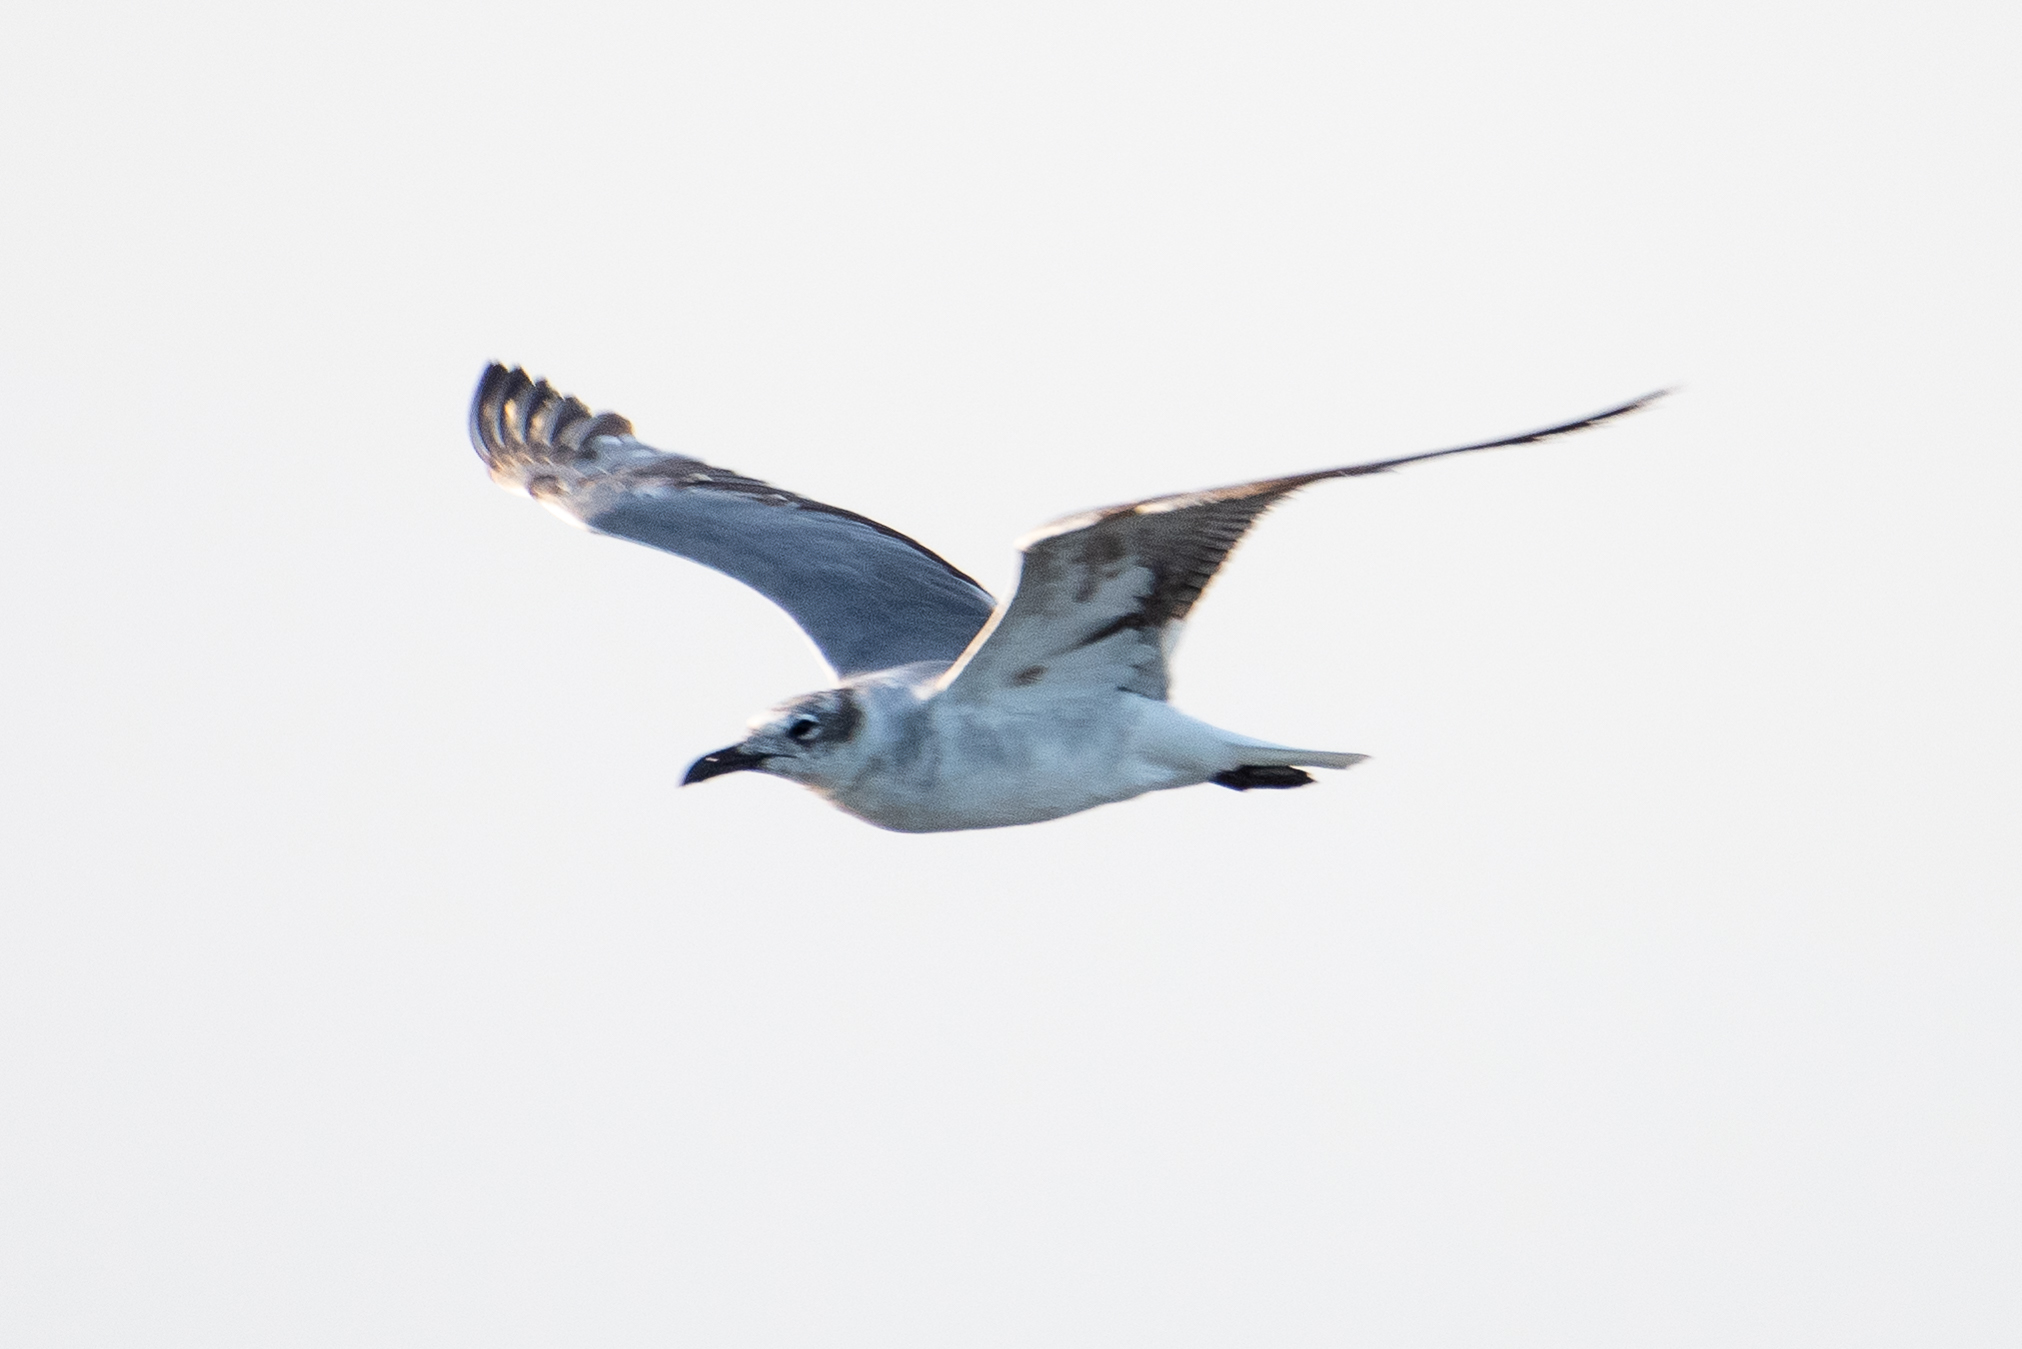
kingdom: Animalia
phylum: Chordata
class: Aves
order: Charadriiformes
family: Laridae
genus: Leucophaeus
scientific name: Leucophaeus atricilla
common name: Laughing gull
